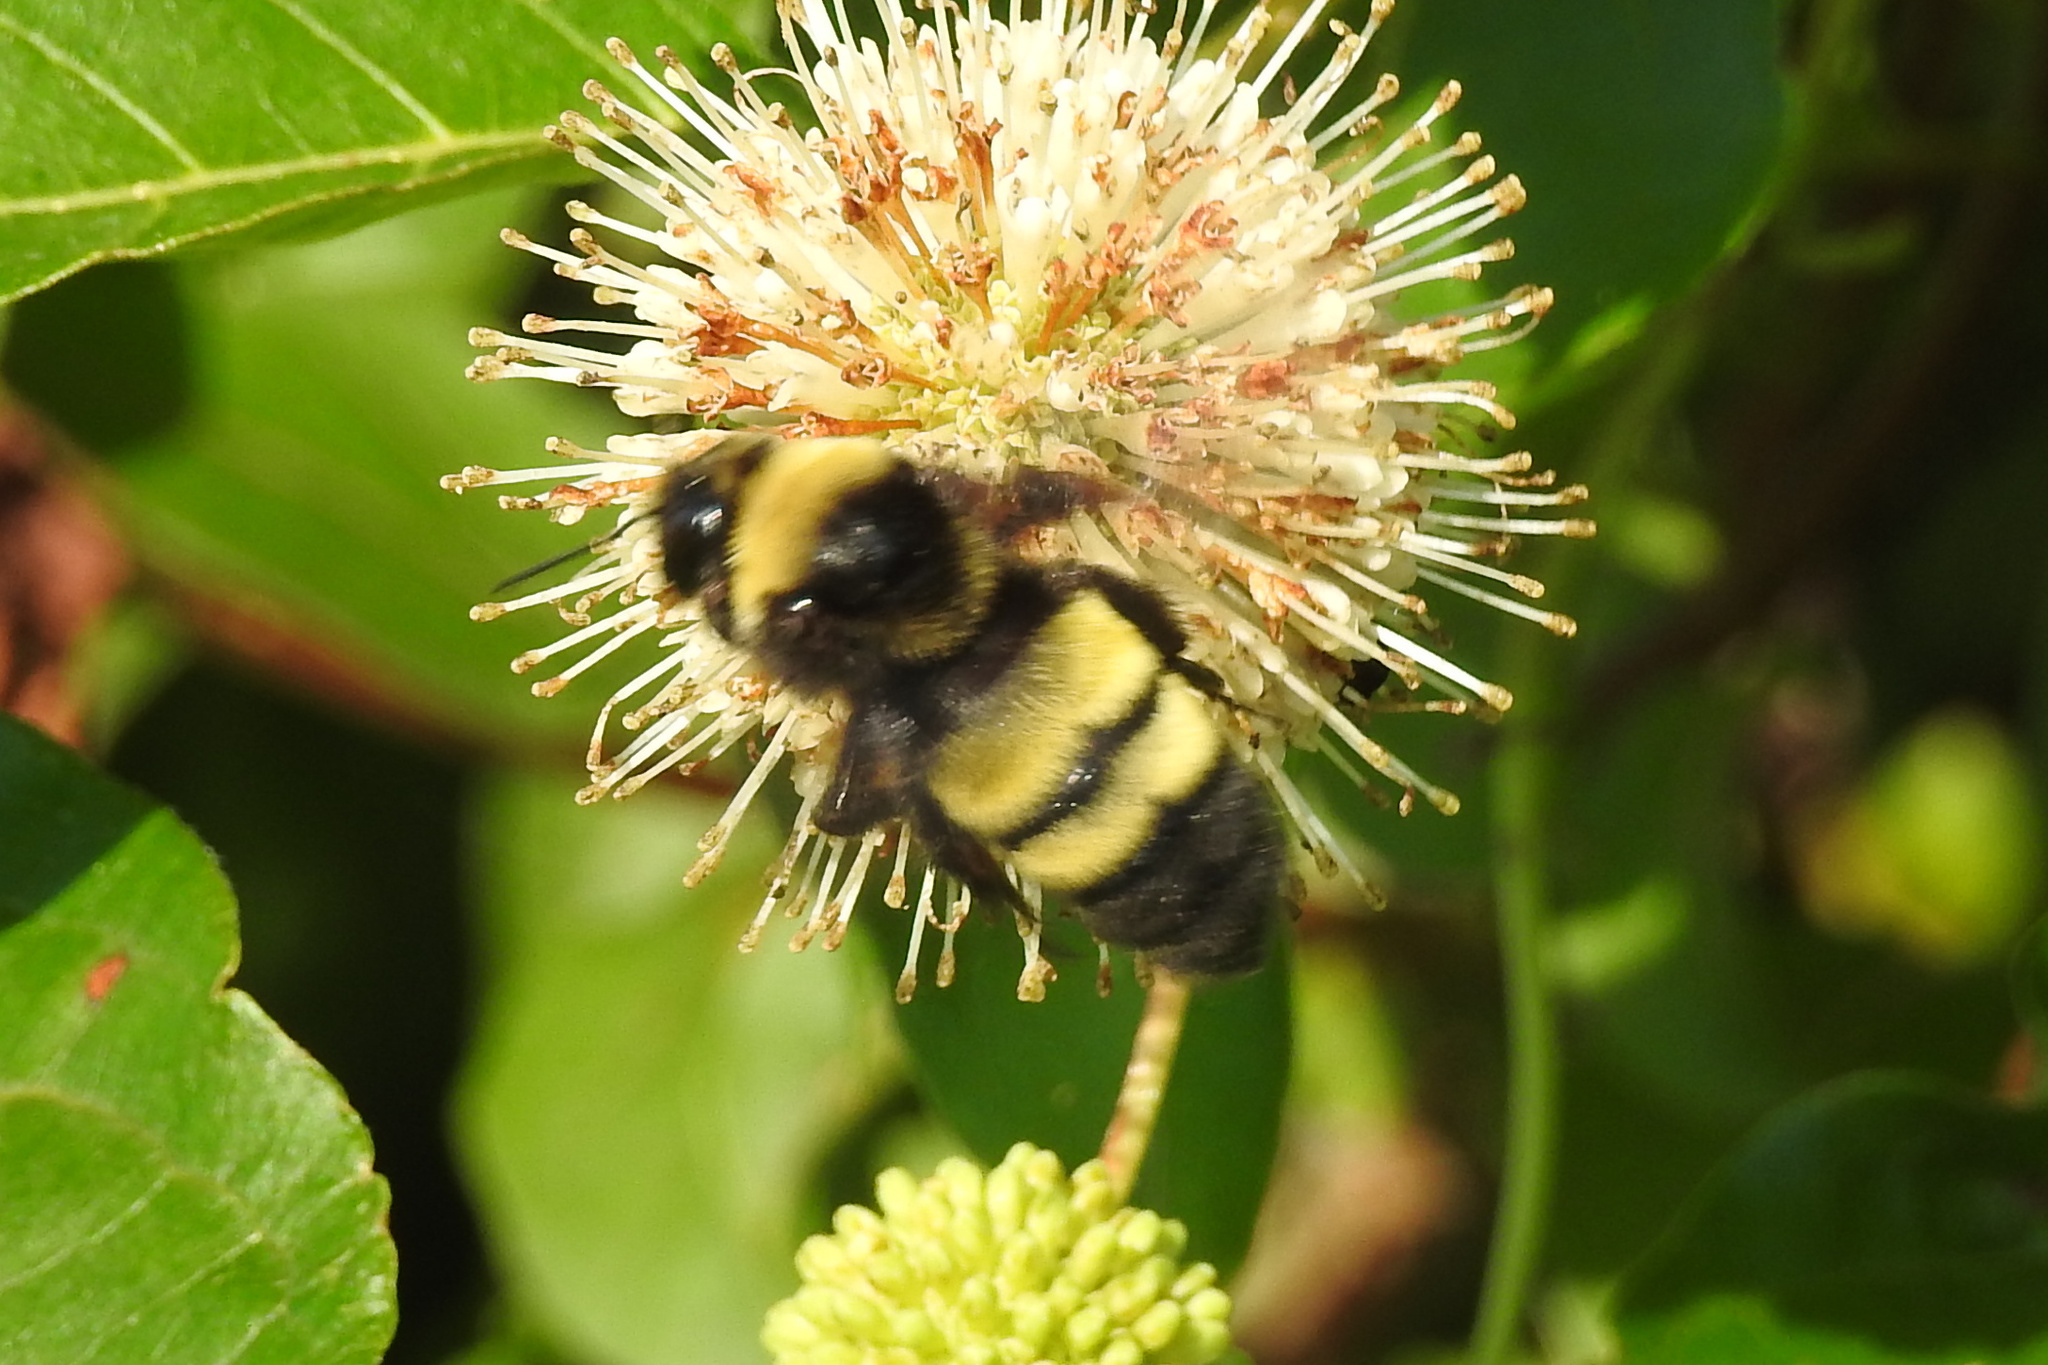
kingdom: Animalia
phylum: Arthropoda
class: Insecta
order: Hymenoptera
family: Apidae
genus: Bombus
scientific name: Bombus auricomus
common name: Black and gold bumble bee
